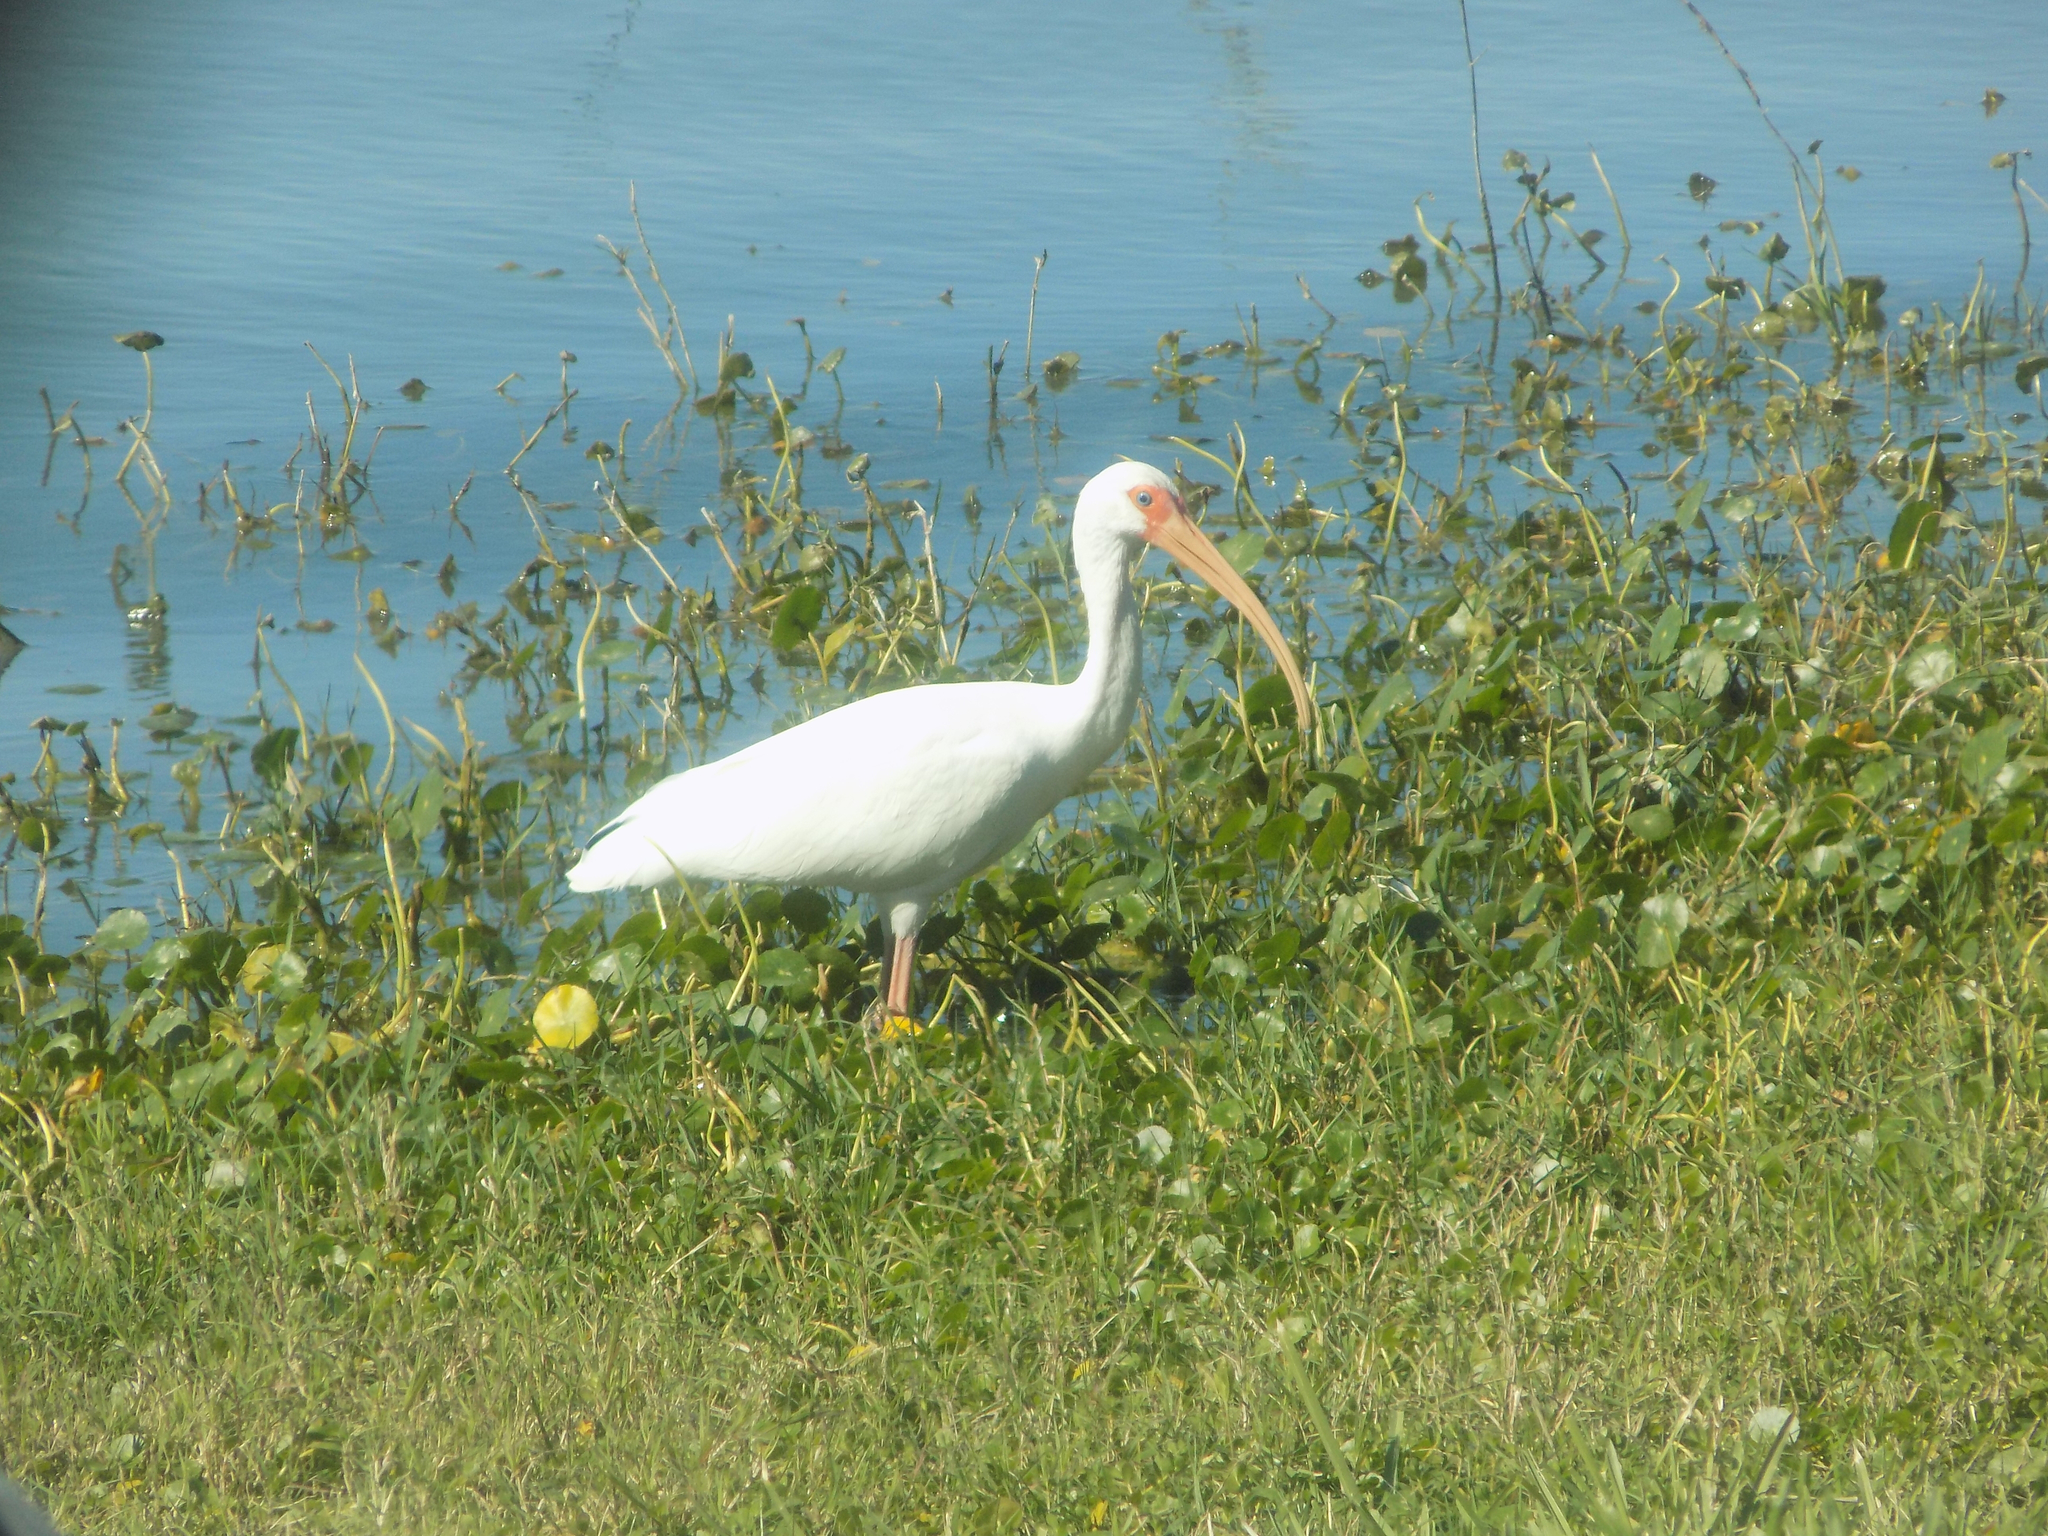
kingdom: Animalia
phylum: Chordata
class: Aves
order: Pelecaniformes
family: Threskiornithidae
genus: Eudocimus
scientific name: Eudocimus albus
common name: White ibis
